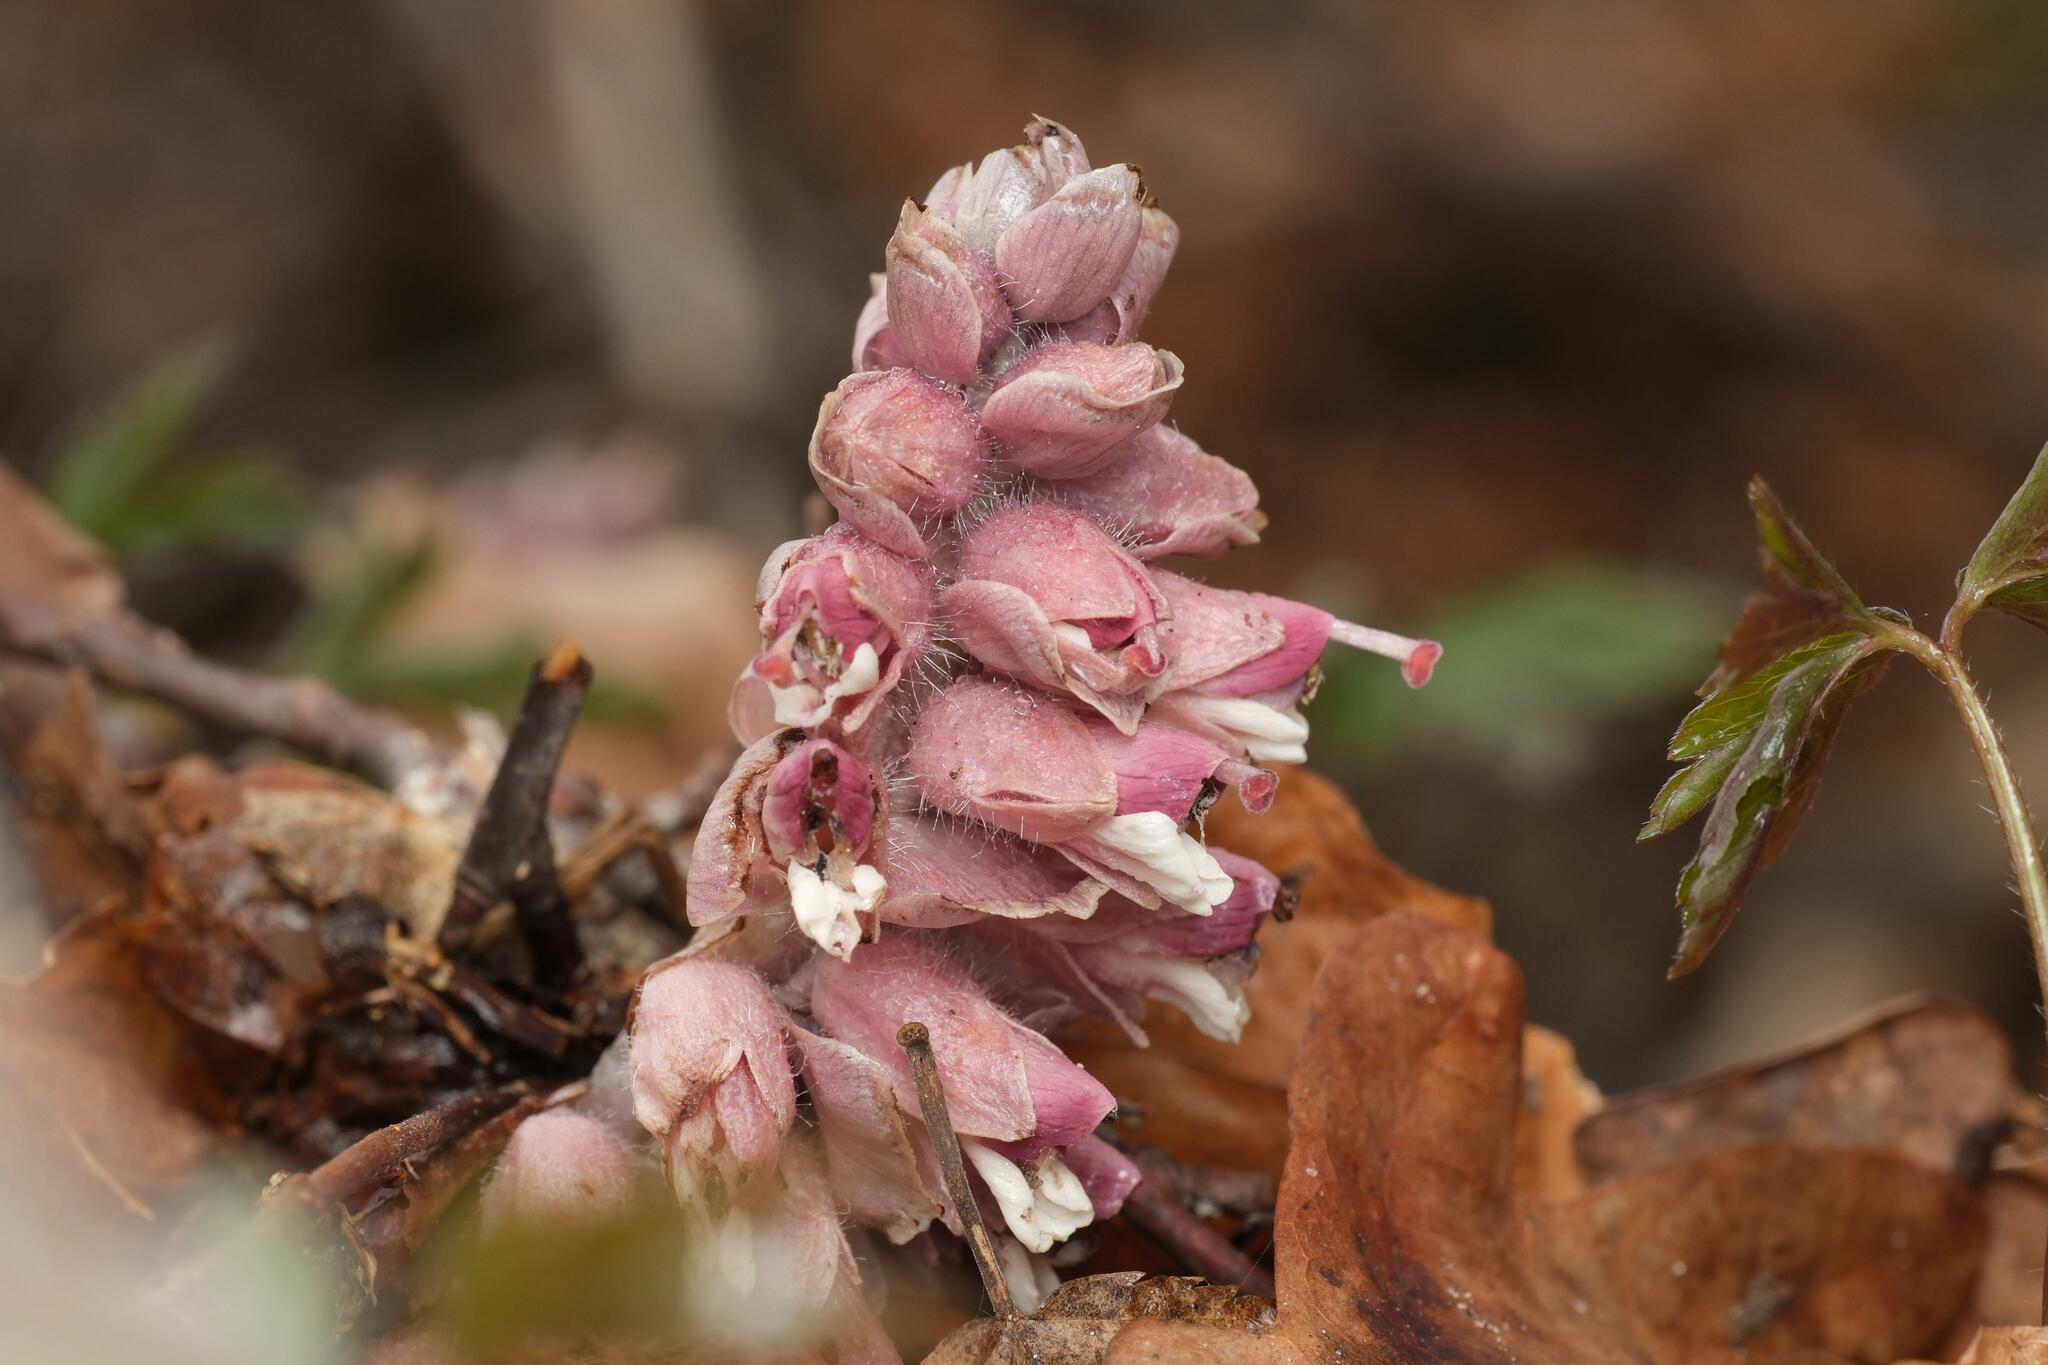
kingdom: Plantae
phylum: Tracheophyta
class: Magnoliopsida
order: Lamiales
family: Orobanchaceae
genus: Lathraea
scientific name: Lathraea squamaria
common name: Toothwort
